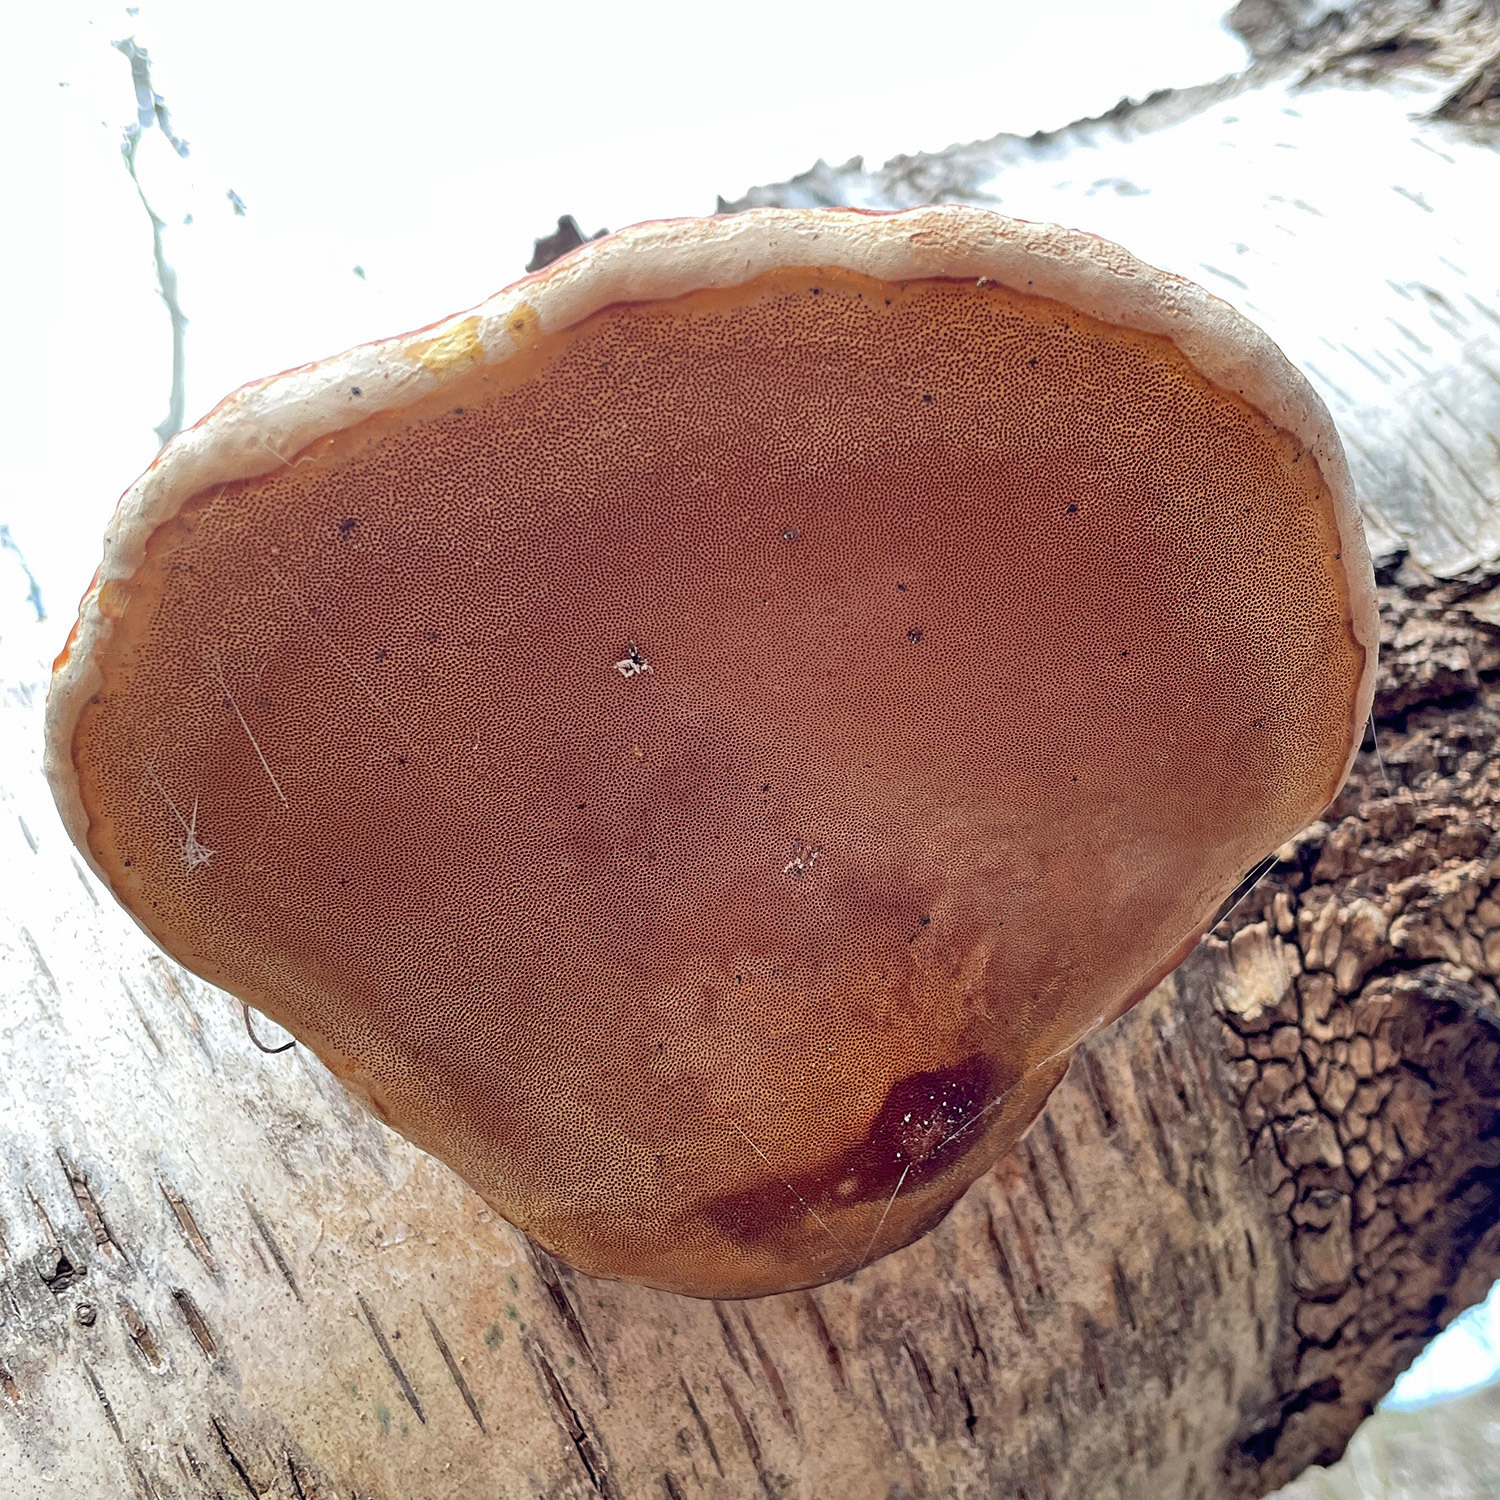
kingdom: Fungi
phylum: Basidiomycota
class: Agaricomycetes
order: Polyporales
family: Fomitopsidaceae
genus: Fomitopsis
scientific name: Fomitopsis pinicola
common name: Red-belted bracket
